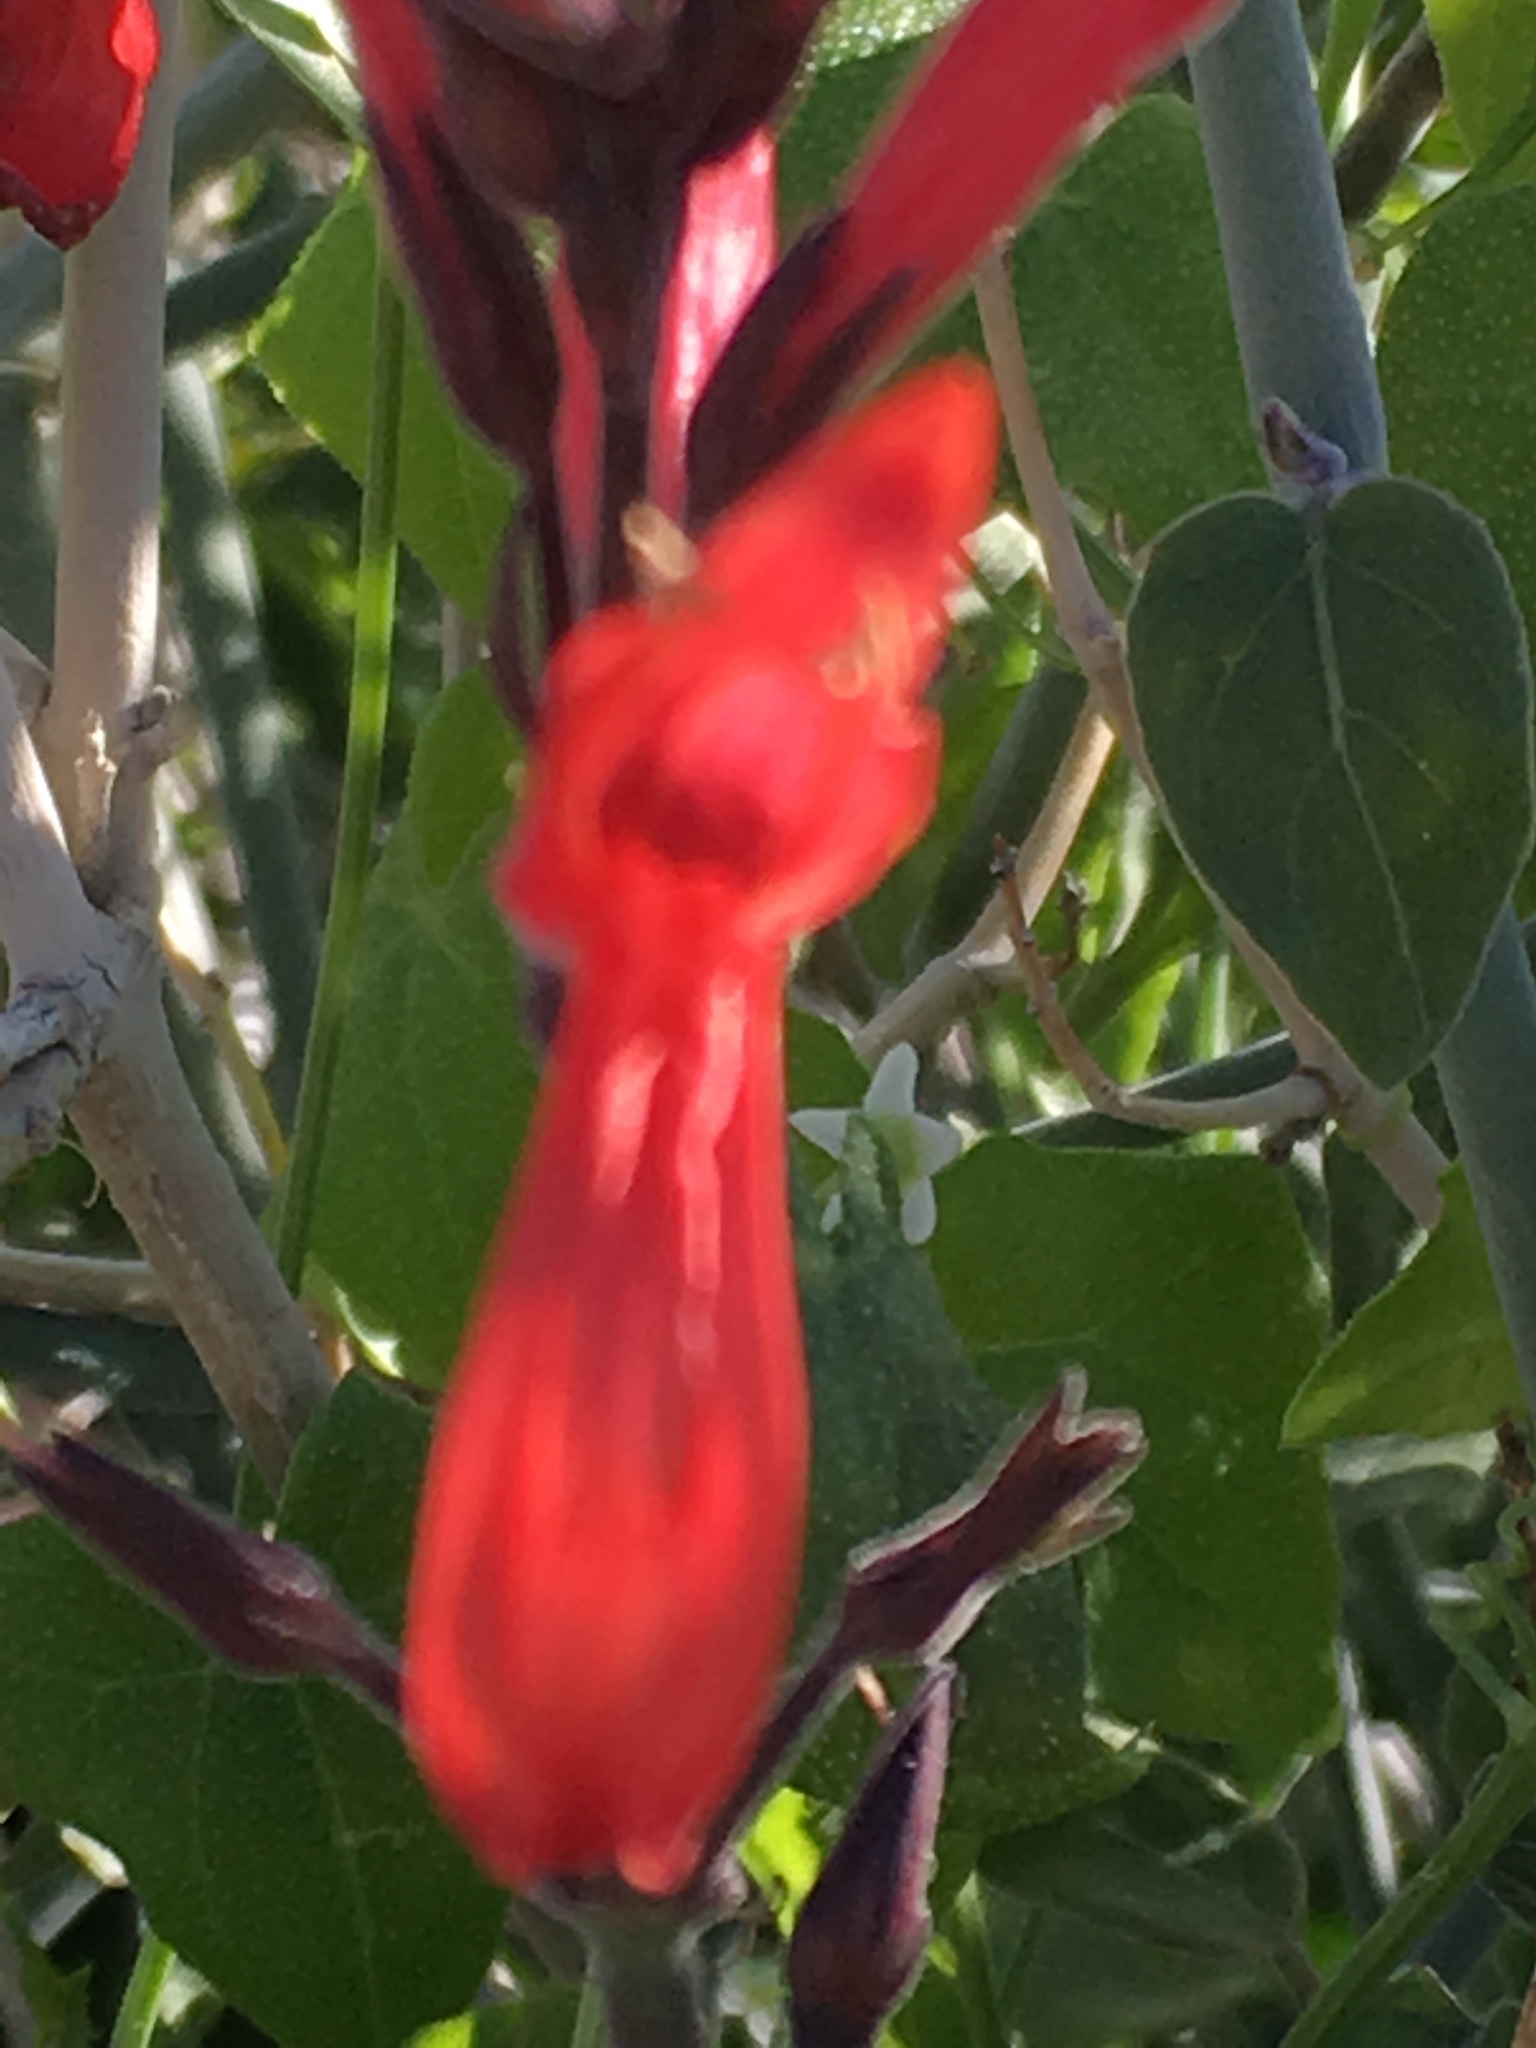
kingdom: Plantae
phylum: Tracheophyta
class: Magnoliopsida
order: Cucurbitales
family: Cucurbitaceae
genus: Echinopepon
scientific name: Echinopepon bigelovii
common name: Desert starvine
